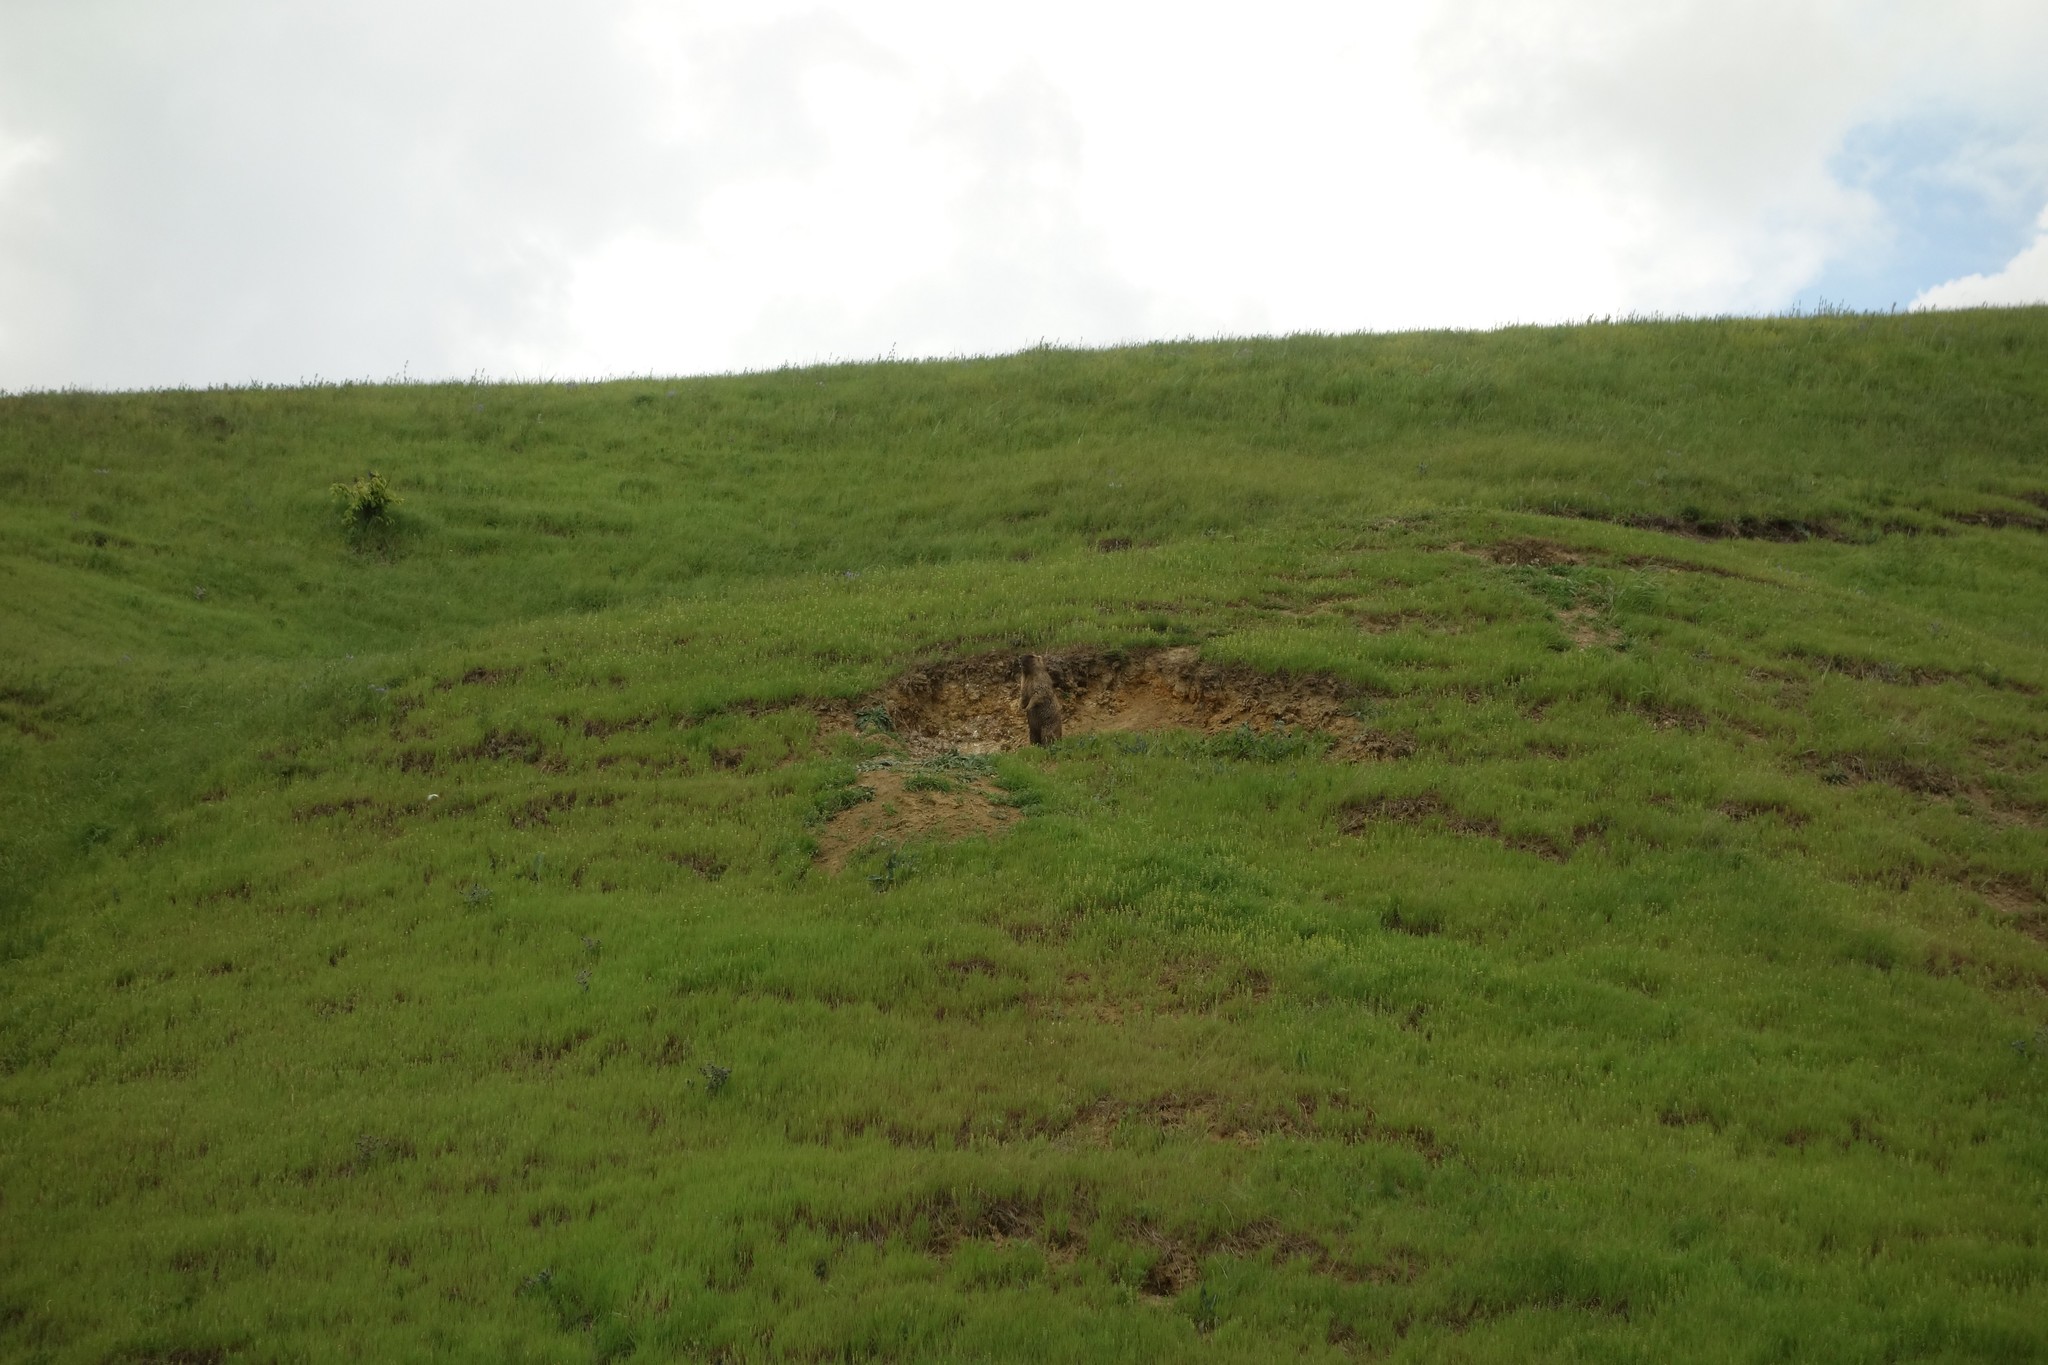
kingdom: Animalia
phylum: Chordata
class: Mammalia
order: Rodentia
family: Sciuridae
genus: Marmota
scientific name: Marmota bobak
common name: Bobak marmot
